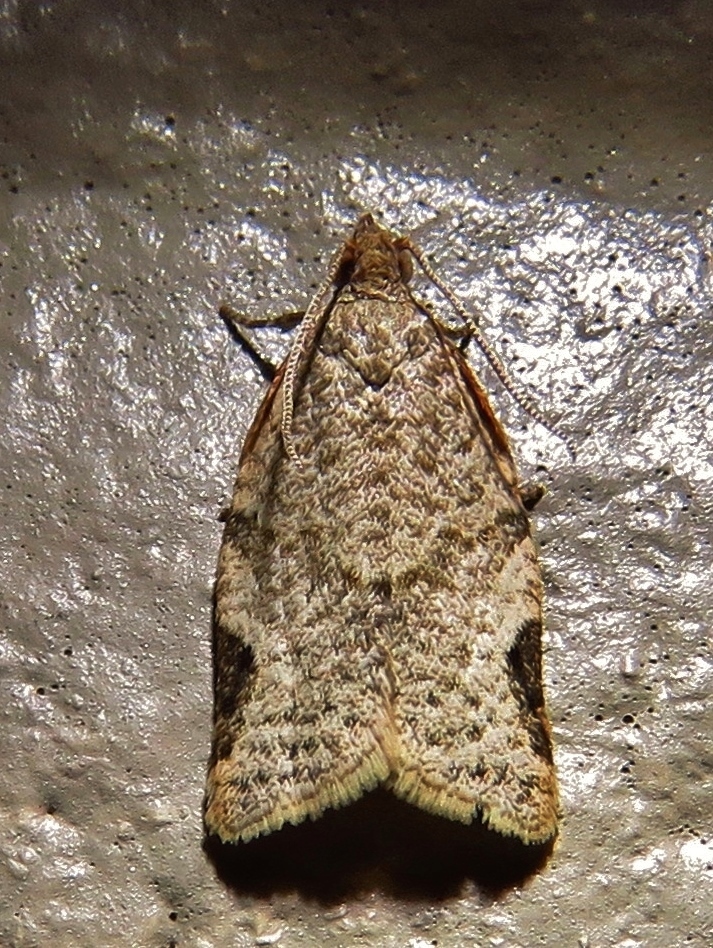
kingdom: Animalia
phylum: Arthropoda
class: Insecta
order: Lepidoptera
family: Tortricidae
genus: Clepsis
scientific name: Clepsis virescana
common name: Greenish apple moth
